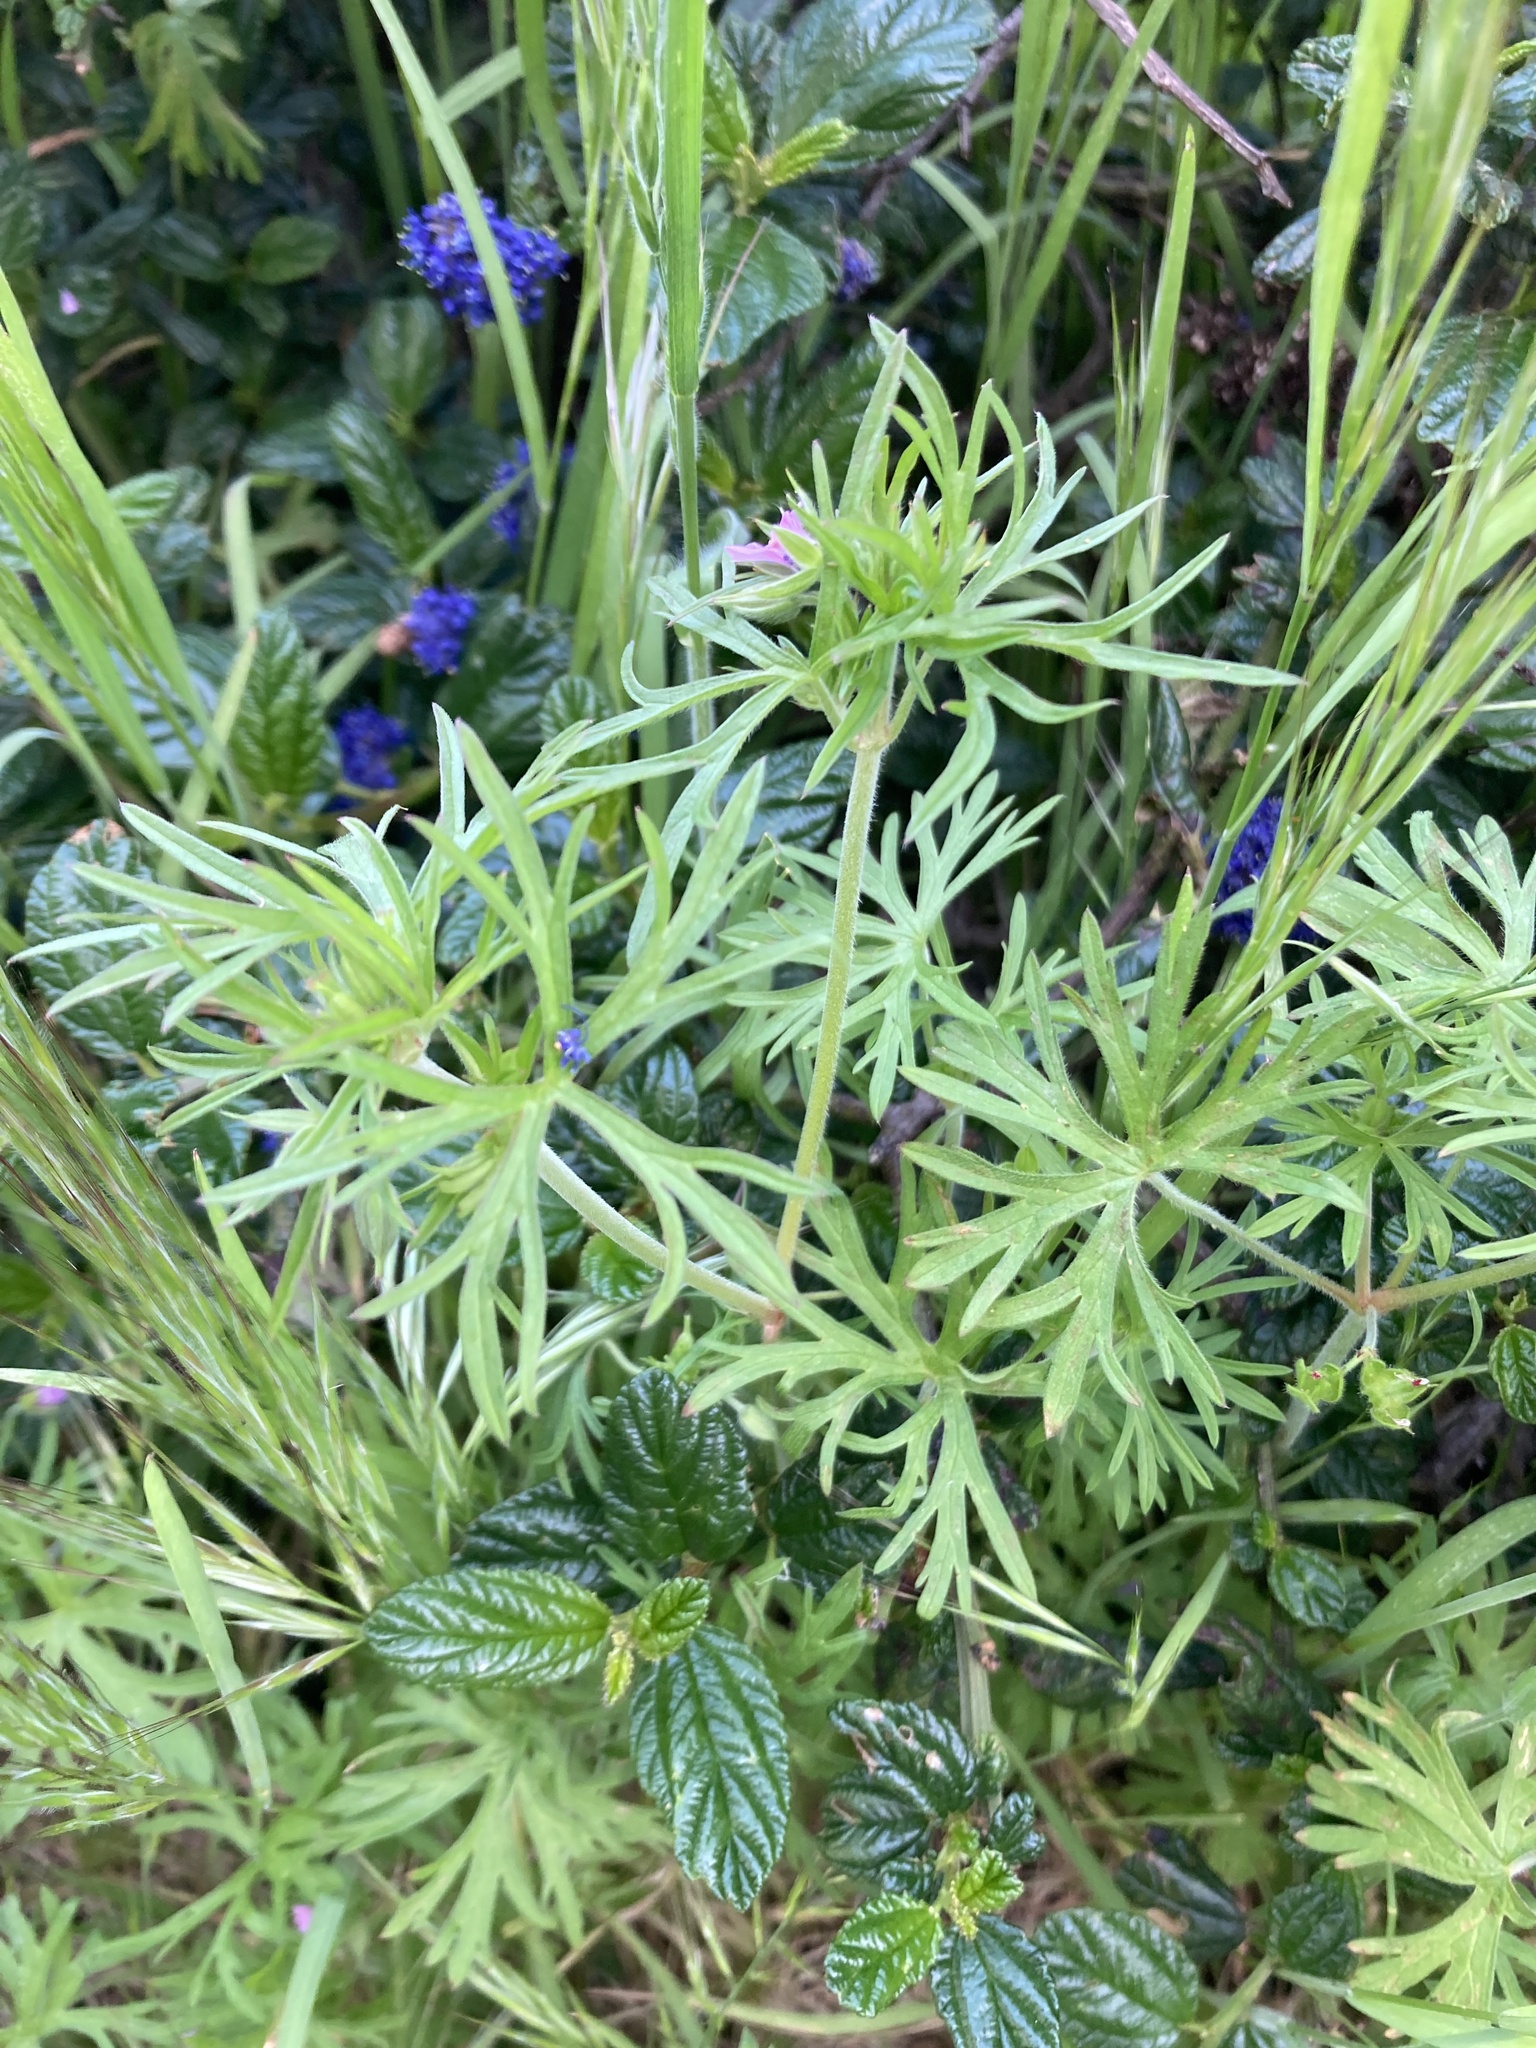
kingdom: Plantae
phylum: Tracheophyta
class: Magnoliopsida
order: Geraniales
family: Geraniaceae
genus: Geranium
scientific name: Geranium dissectum
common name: Cut-leaved crane's-bill
